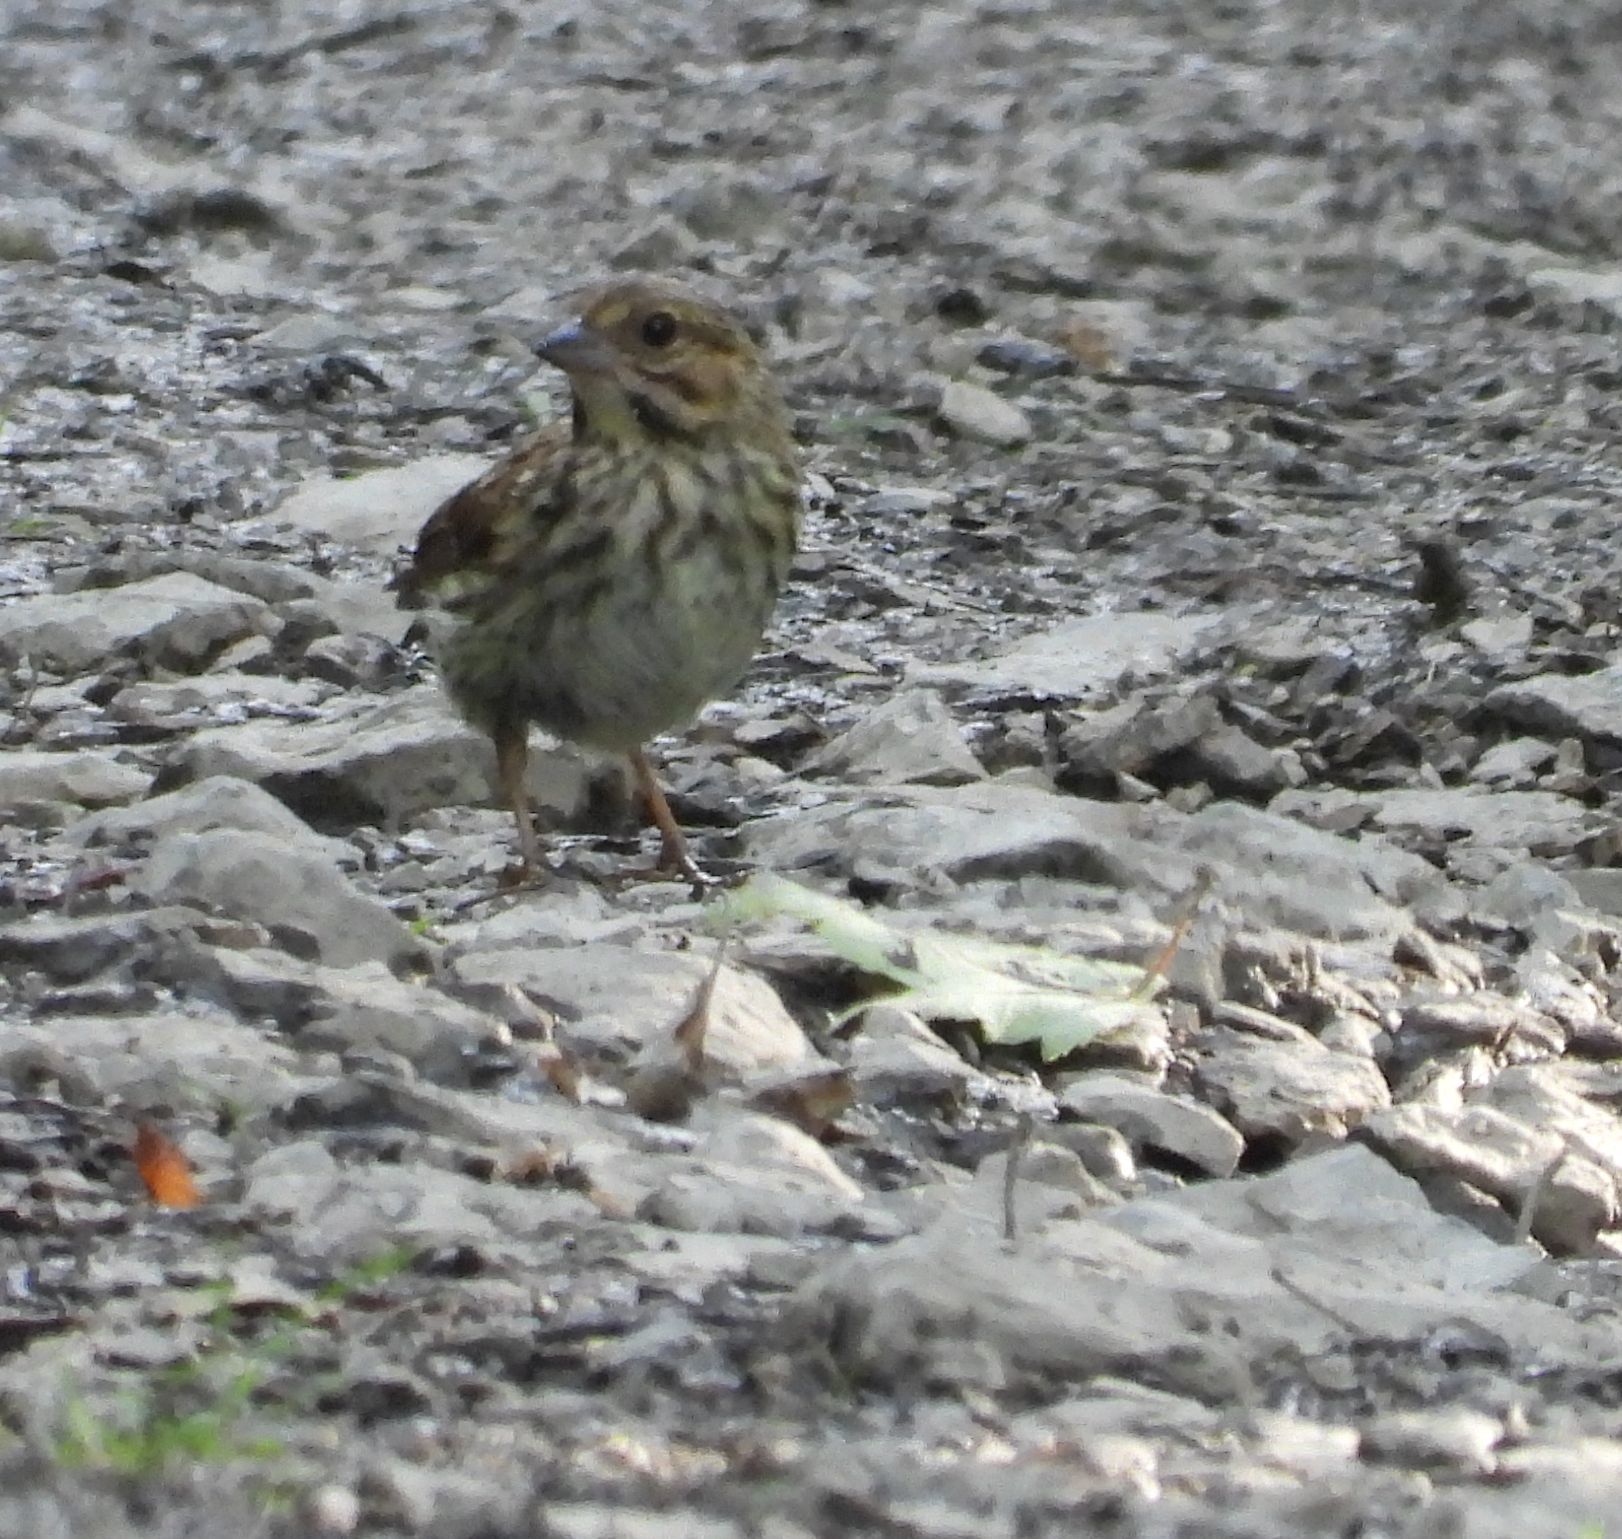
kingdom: Animalia
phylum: Chordata
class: Aves
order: Passeriformes
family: Passerellidae
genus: Melospiza
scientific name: Melospiza melodia
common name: Song sparrow
